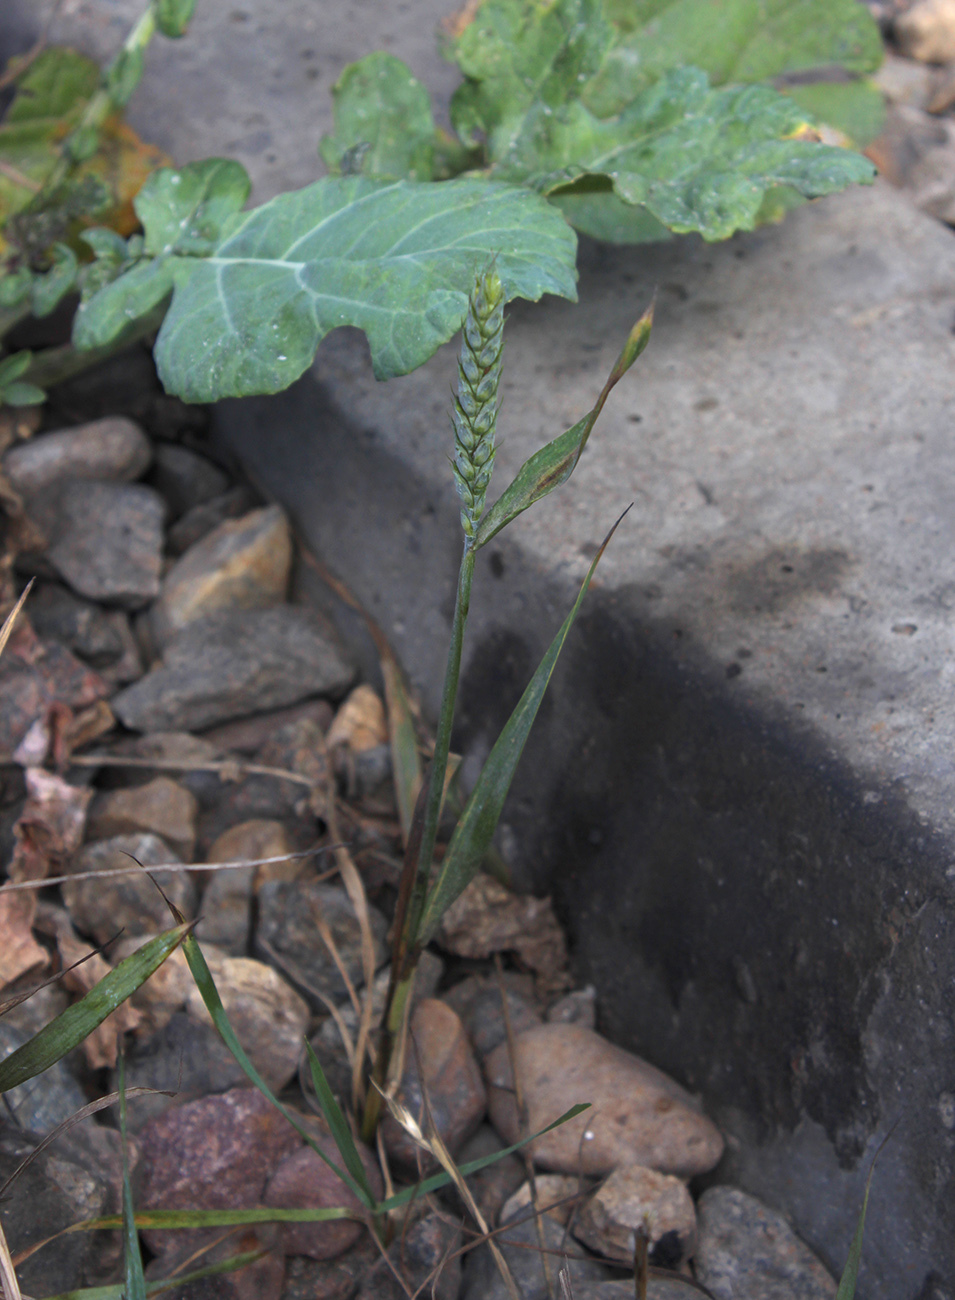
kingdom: Plantae
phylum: Tracheophyta
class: Liliopsida
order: Poales
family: Poaceae
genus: Triticum
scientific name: Triticum aestivum
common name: Common wheat
